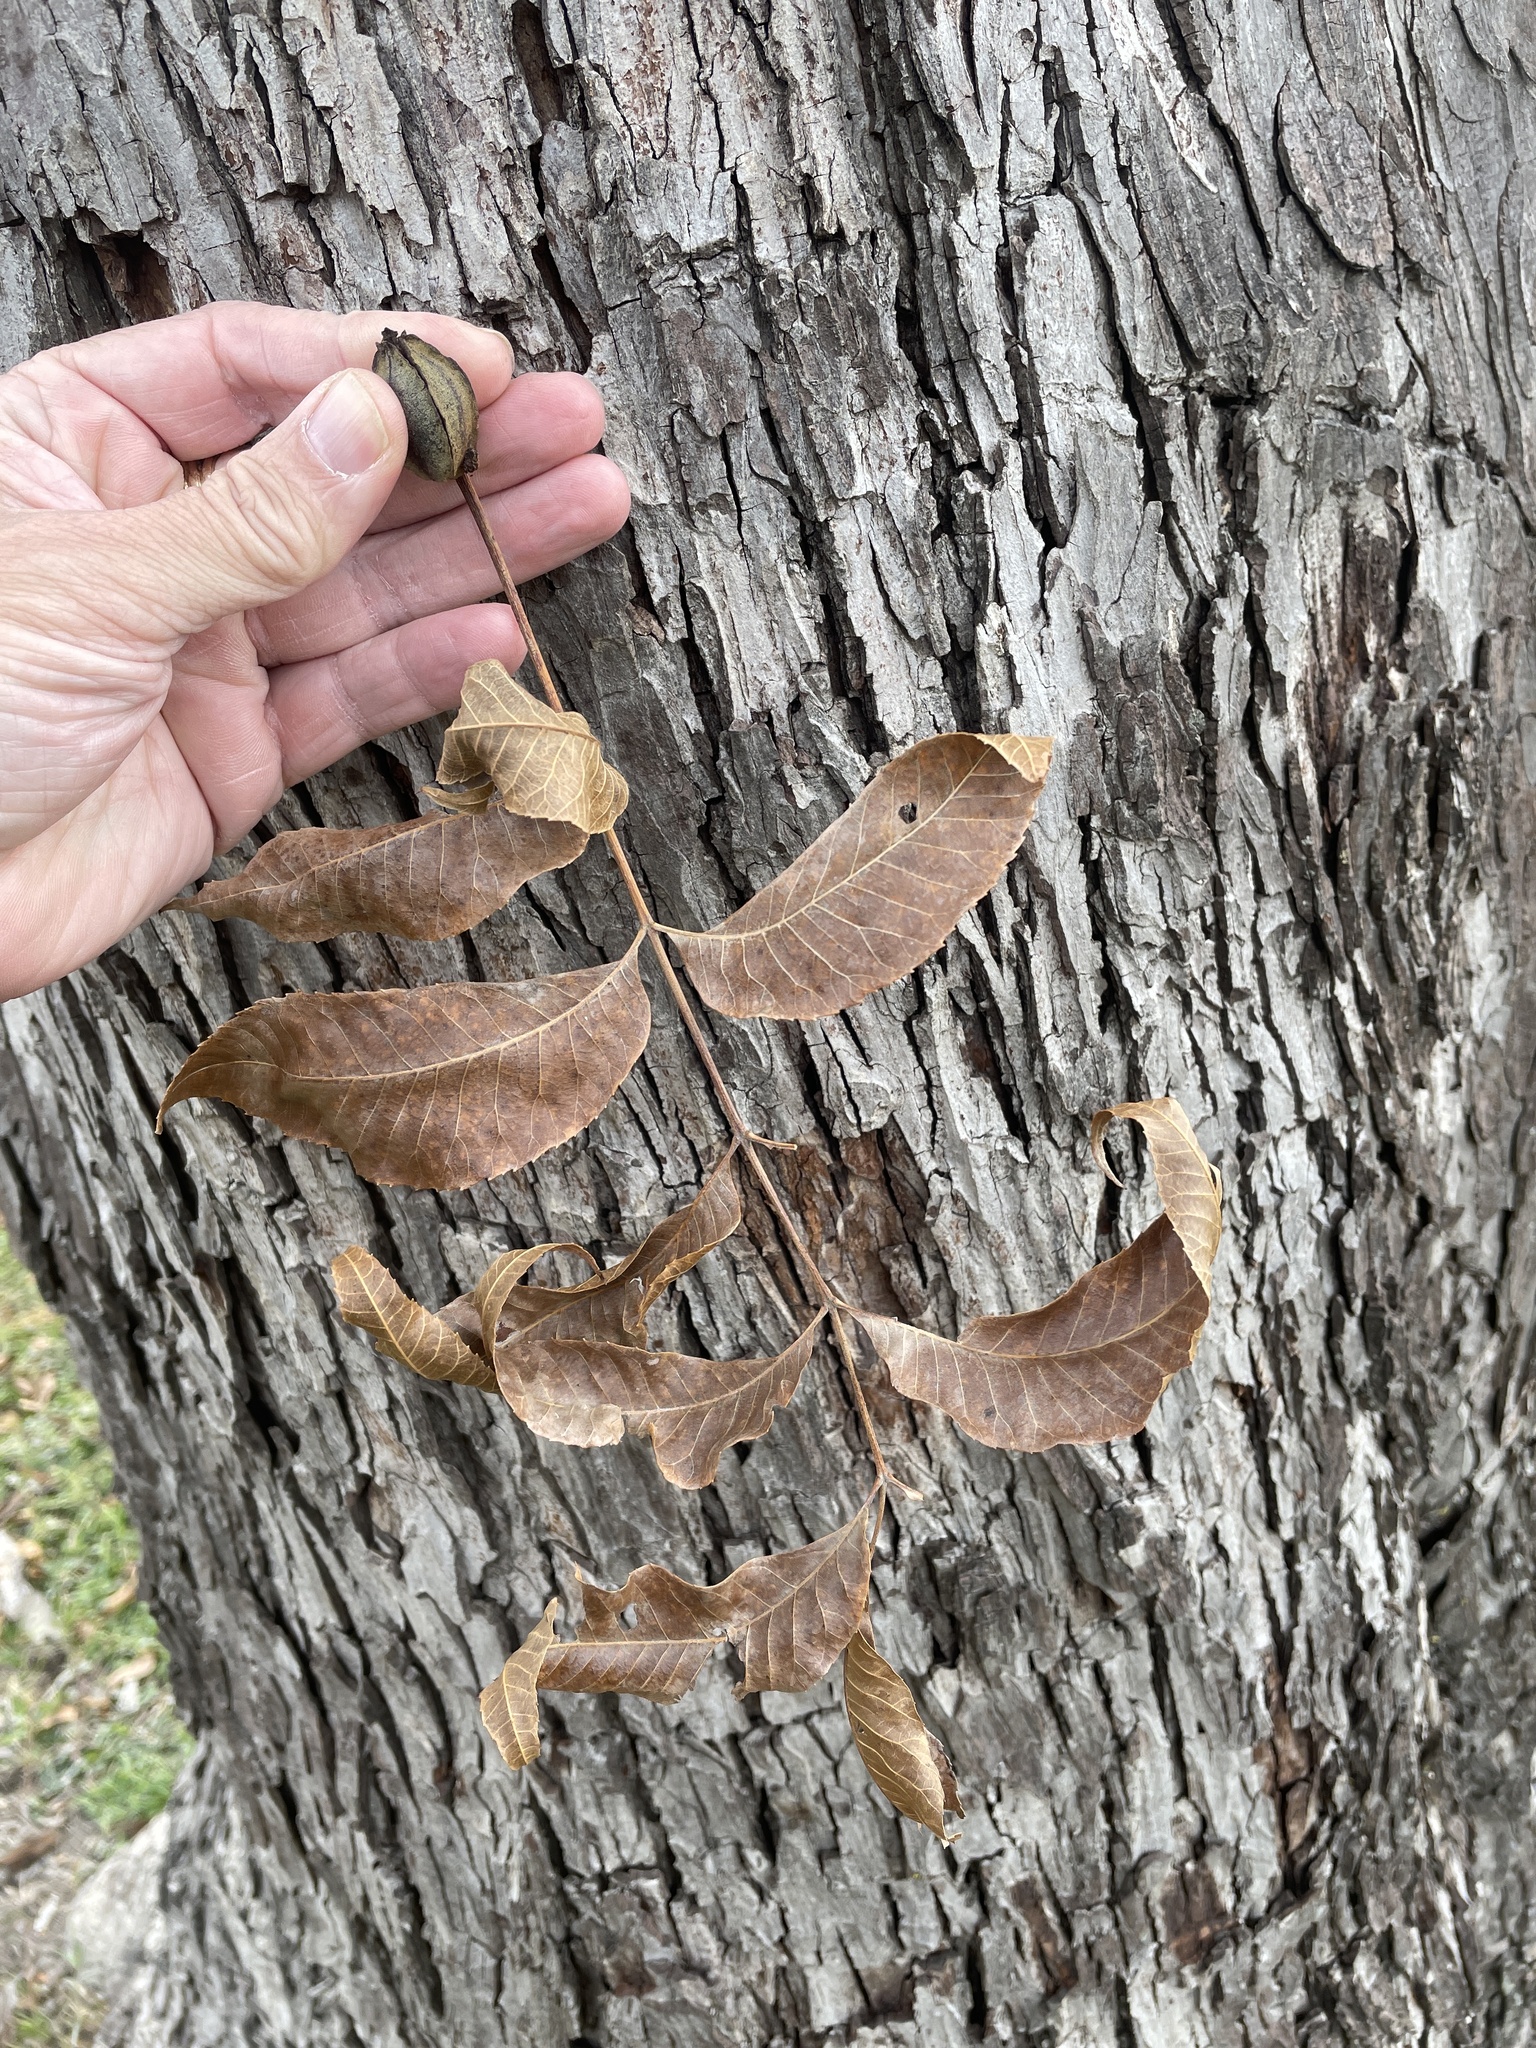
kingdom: Plantae
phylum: Tracheophyta
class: Magnoliopsida
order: Fagales
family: Juglandaceae
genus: Carya
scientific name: Carya illinoinensis
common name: Pecan
